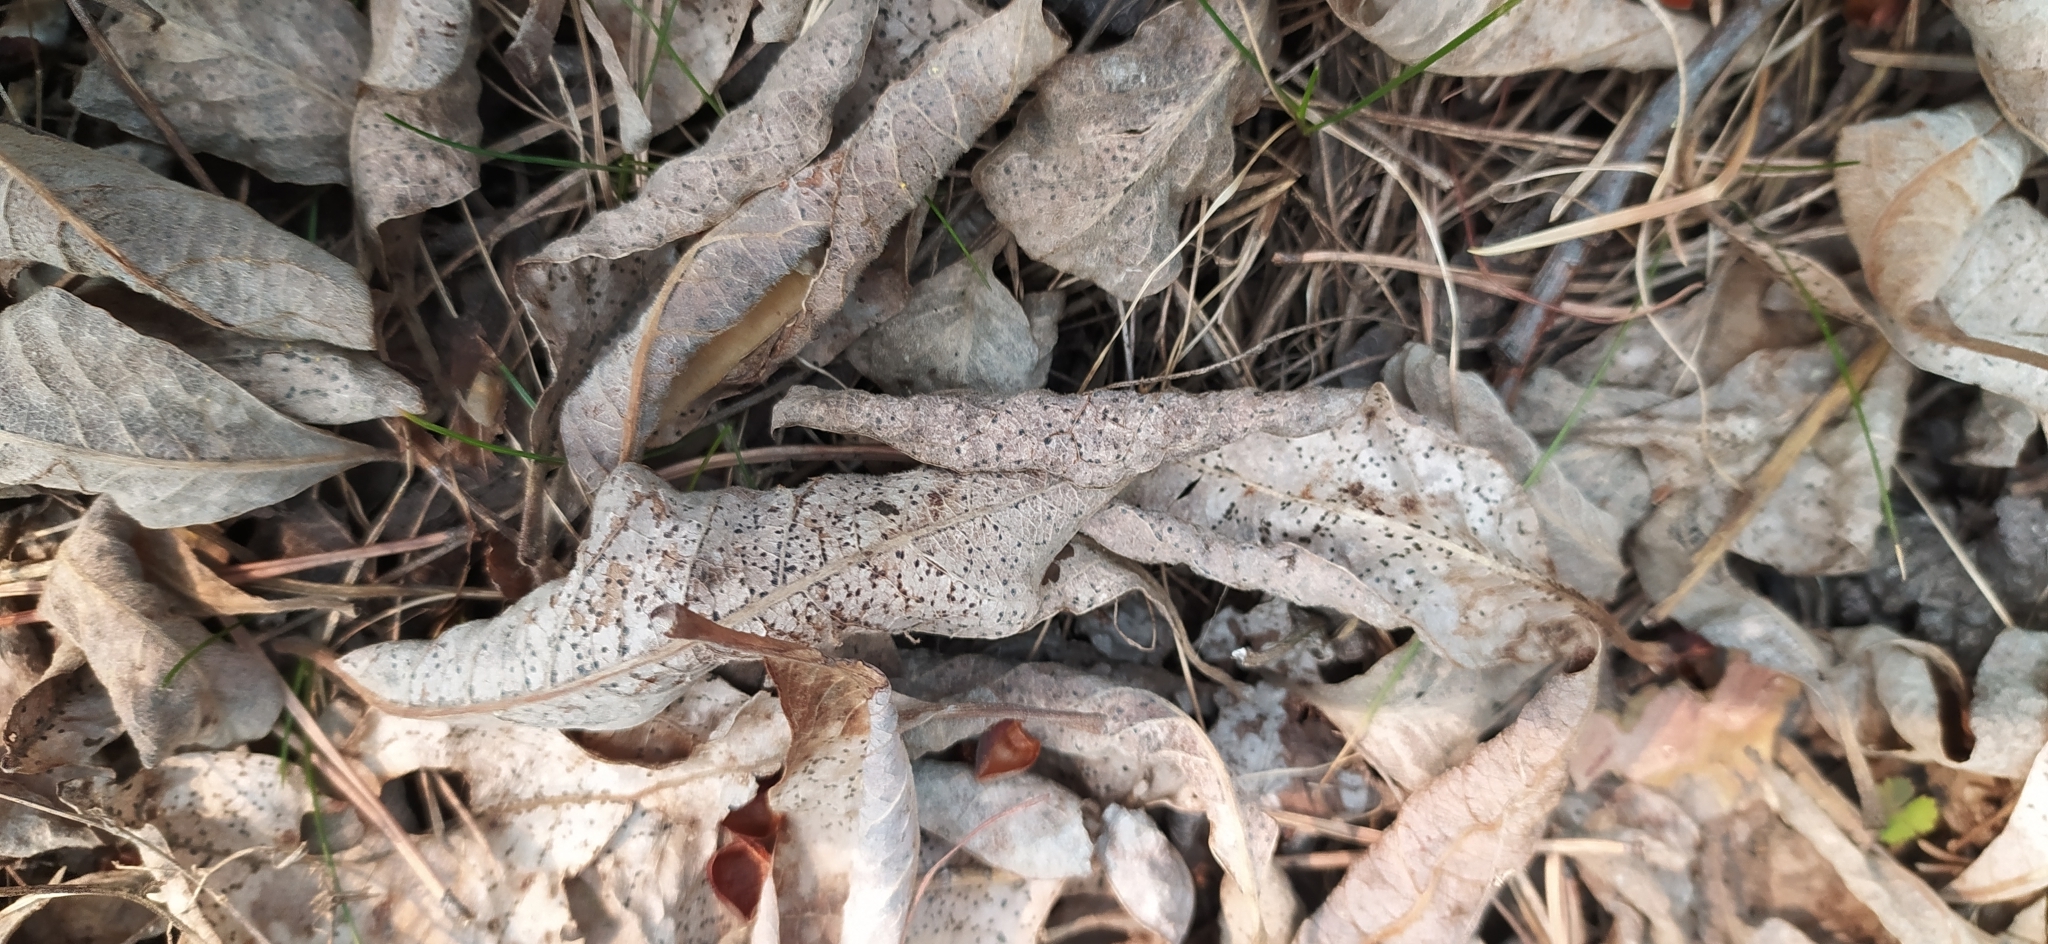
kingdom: Plantae
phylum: Tracheophyta
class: Magnoliopsida
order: Malpighiales
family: Salicaceae
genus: Salix
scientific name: Salix caprea
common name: Goat willow
